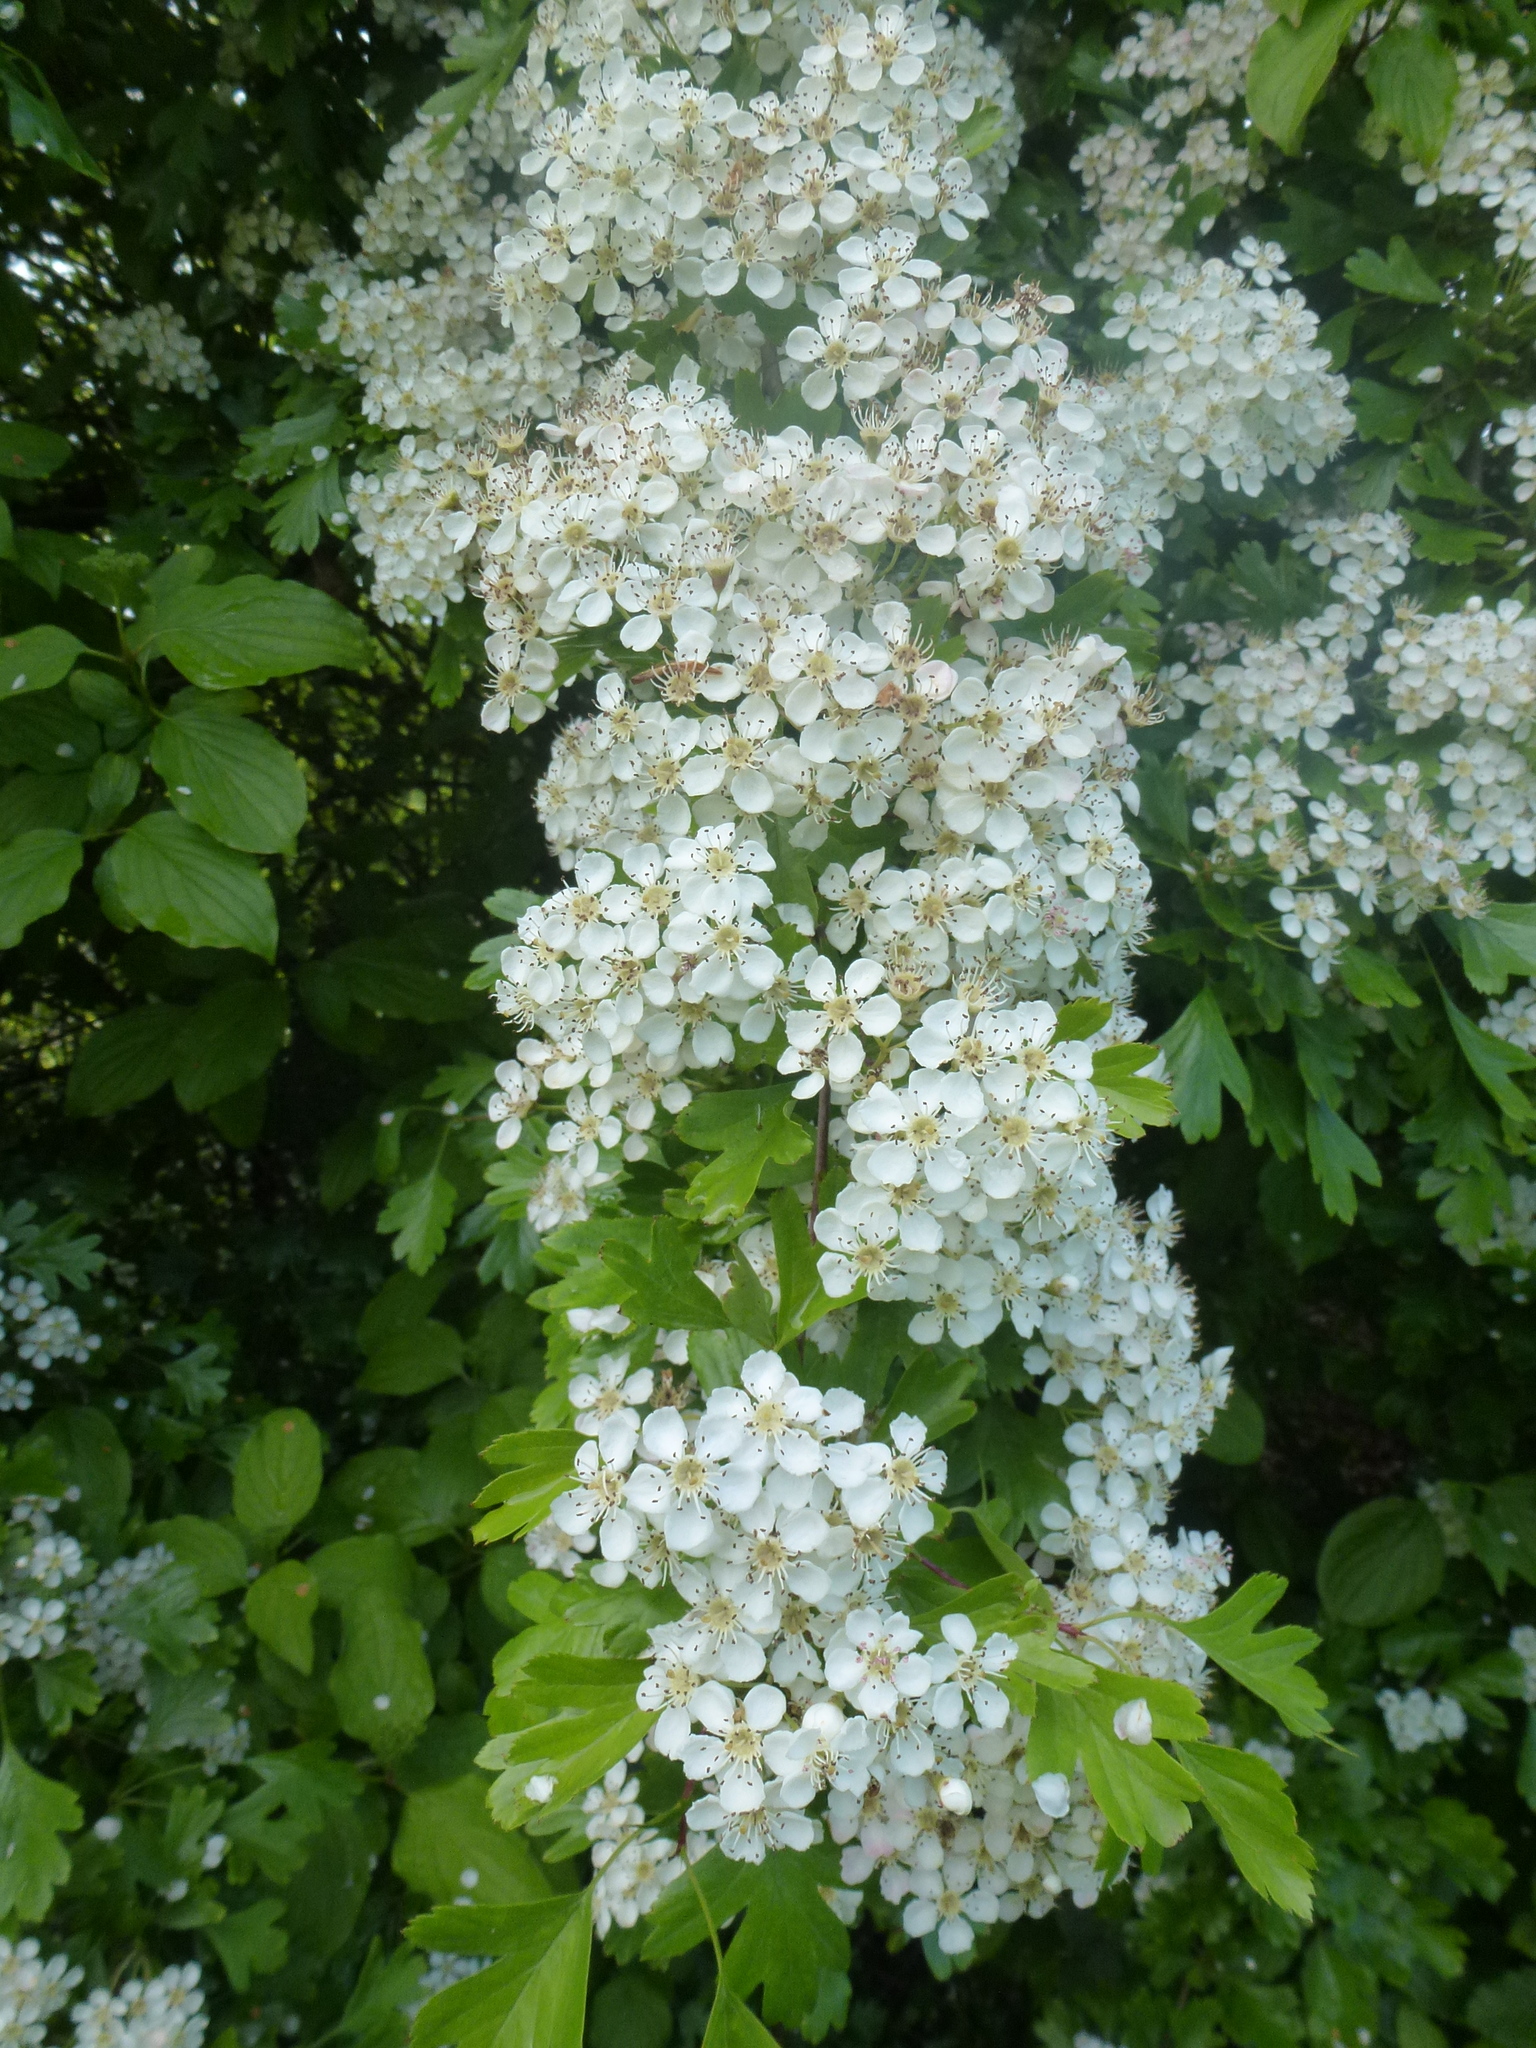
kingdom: Plantae
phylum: Tracheophyta
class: Magnoliopsida
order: Rosales
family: Rosaceae
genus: Crataegus
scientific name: Crataegus monogyna
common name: Hawthorn
